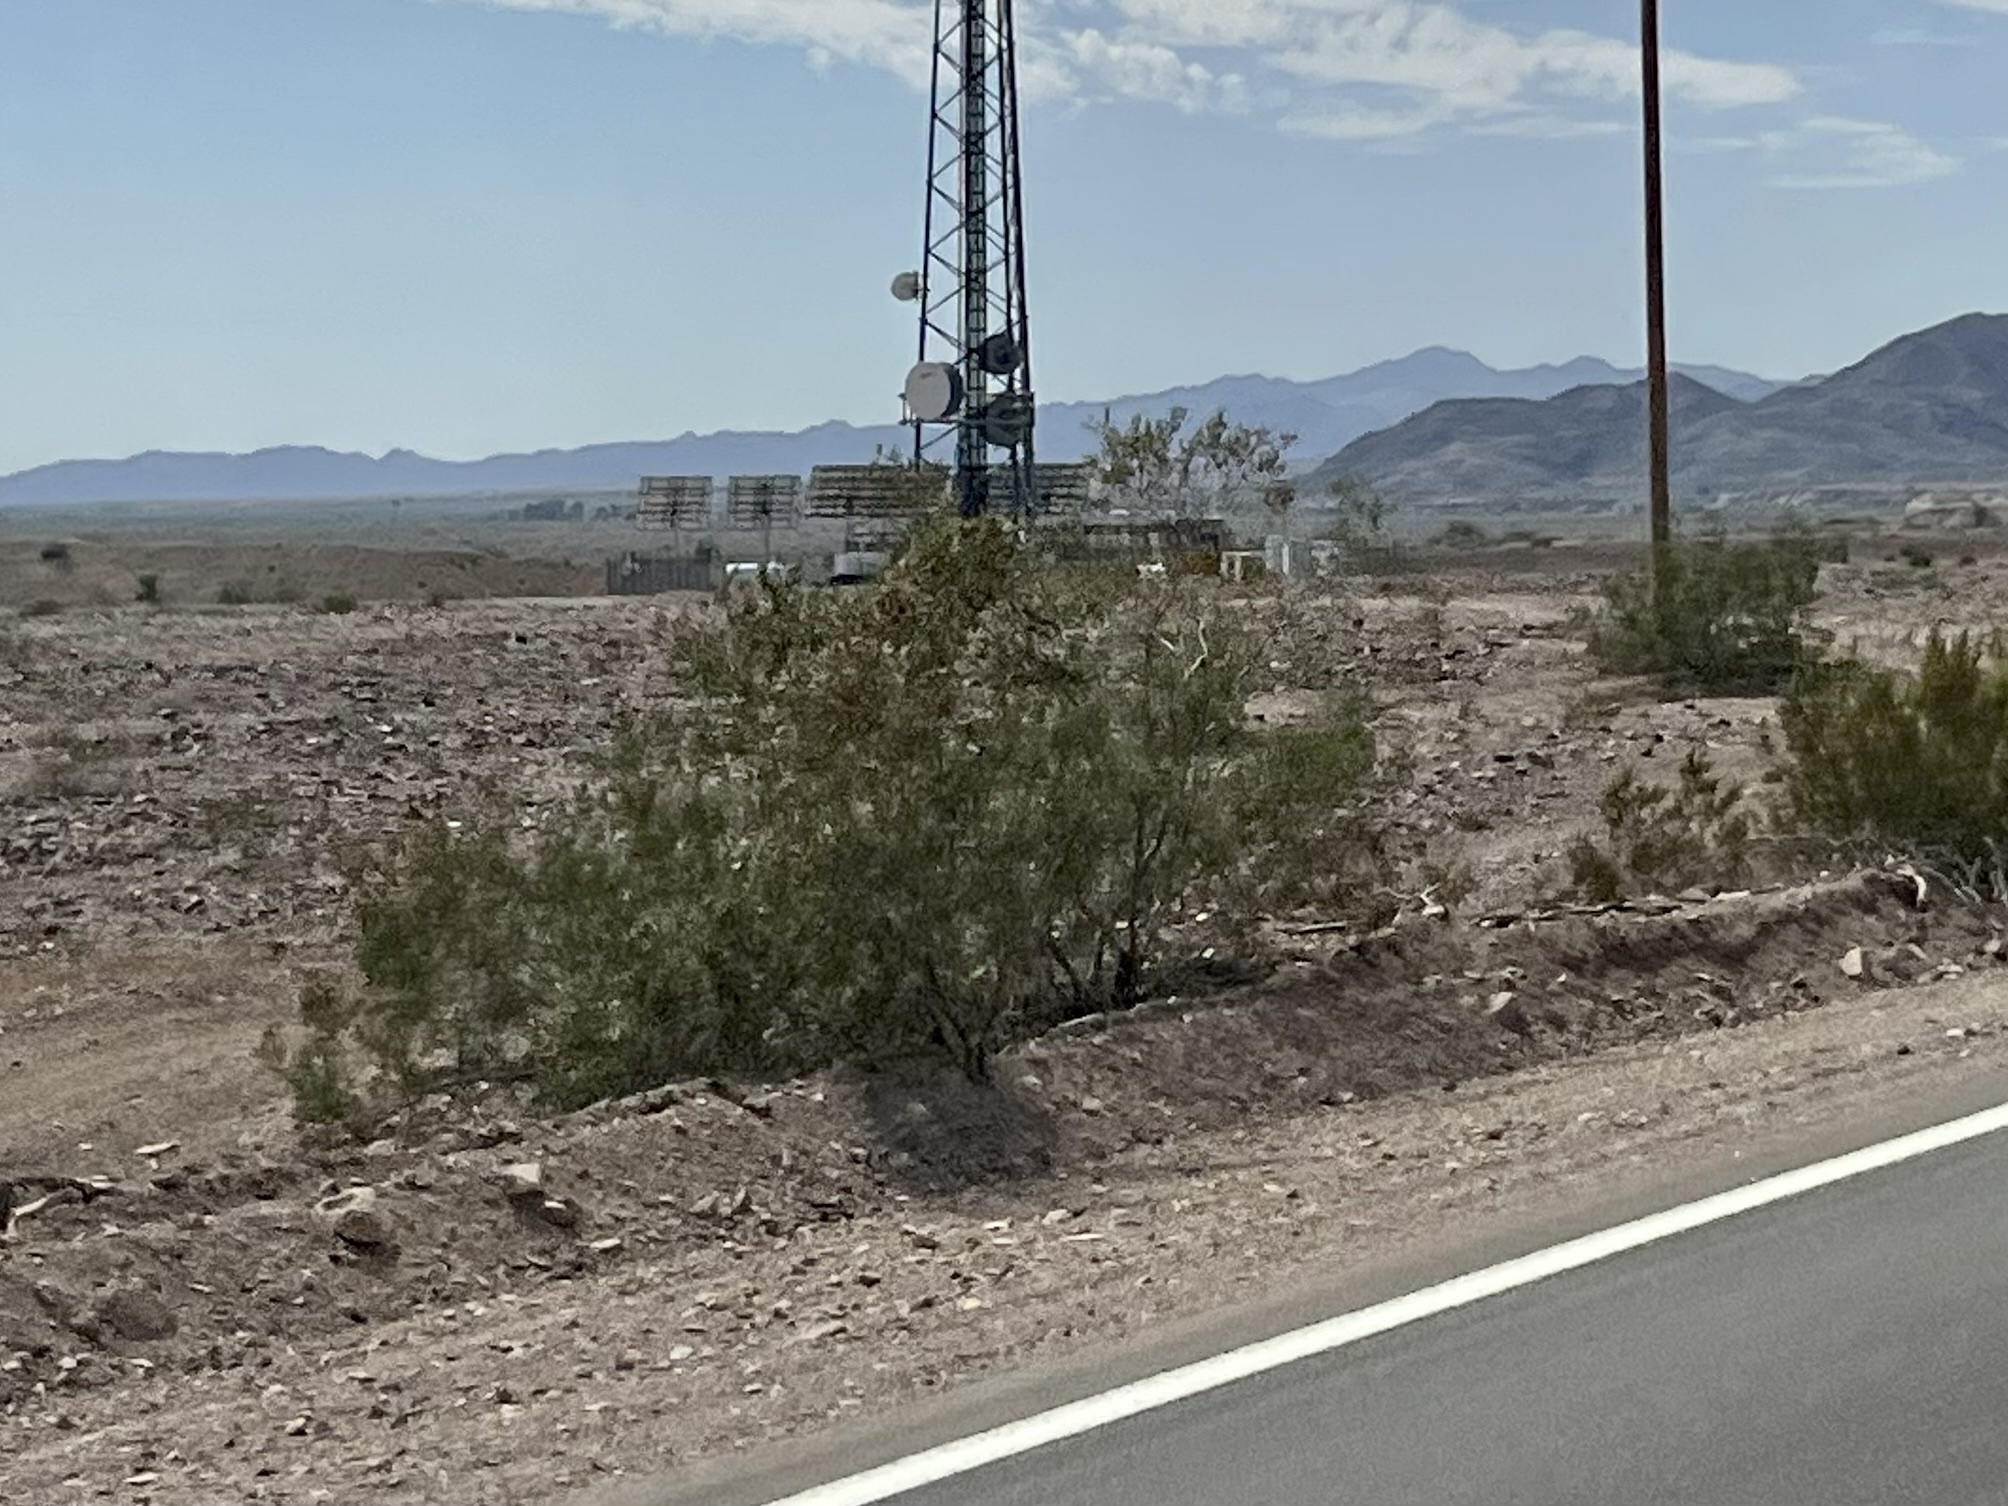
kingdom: Plantae
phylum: Tracheophyta
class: Magnoliopsida
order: Zygophyllales
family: Zygophyllaceae
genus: Larrea
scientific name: Larrea tridentata
